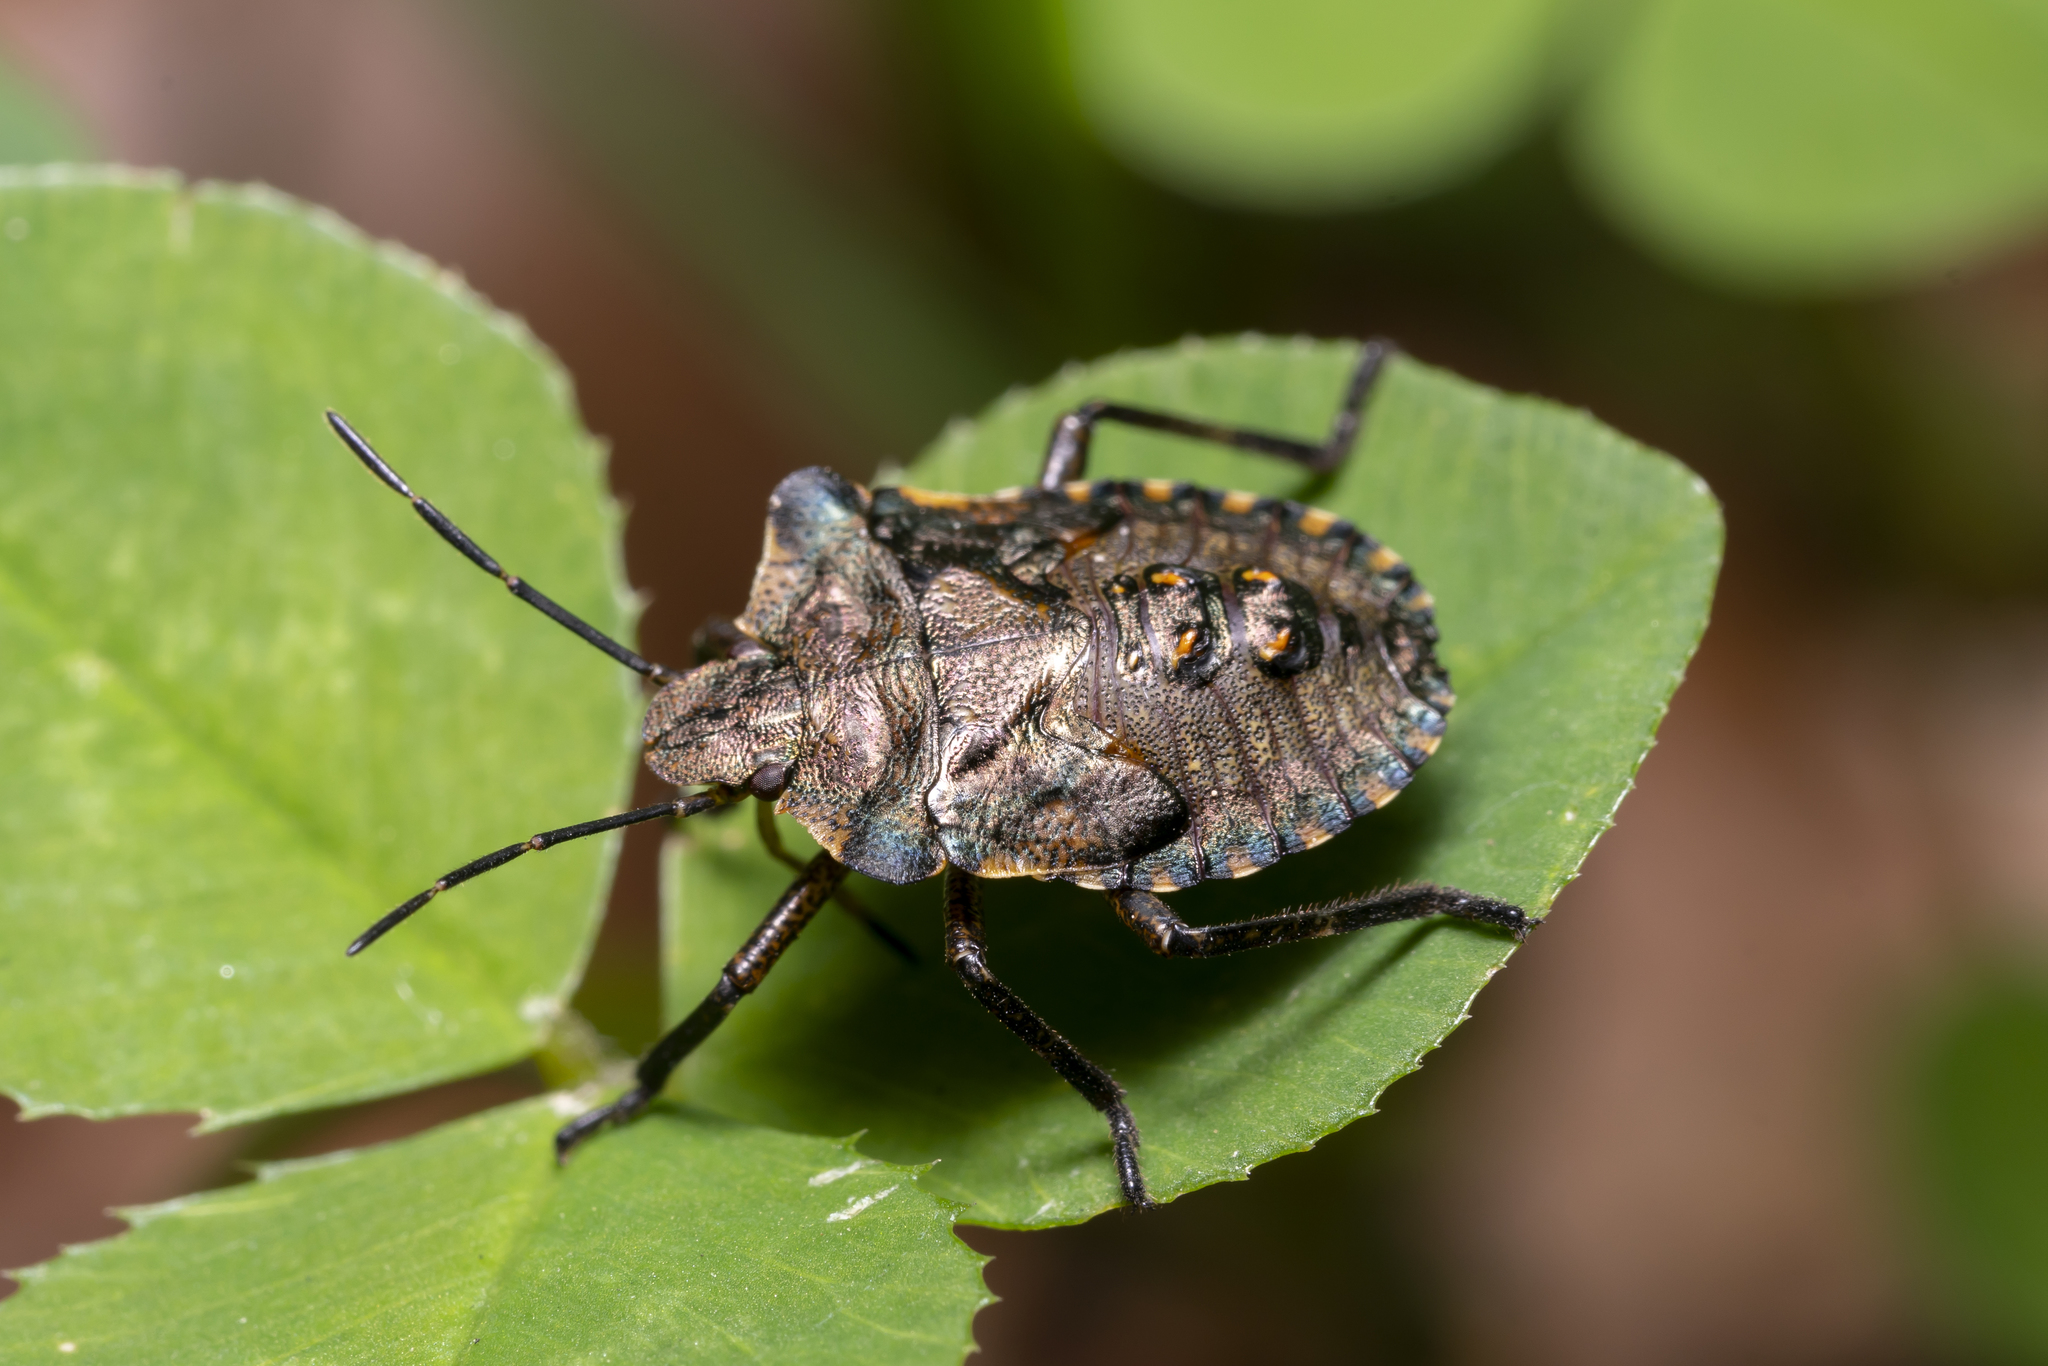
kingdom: Animalia
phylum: Arthropoda
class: Insecta
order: Hemiptera
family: Pentatomidae
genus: Pentatoma
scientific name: Pentatoma rufipes
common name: Forest bug
